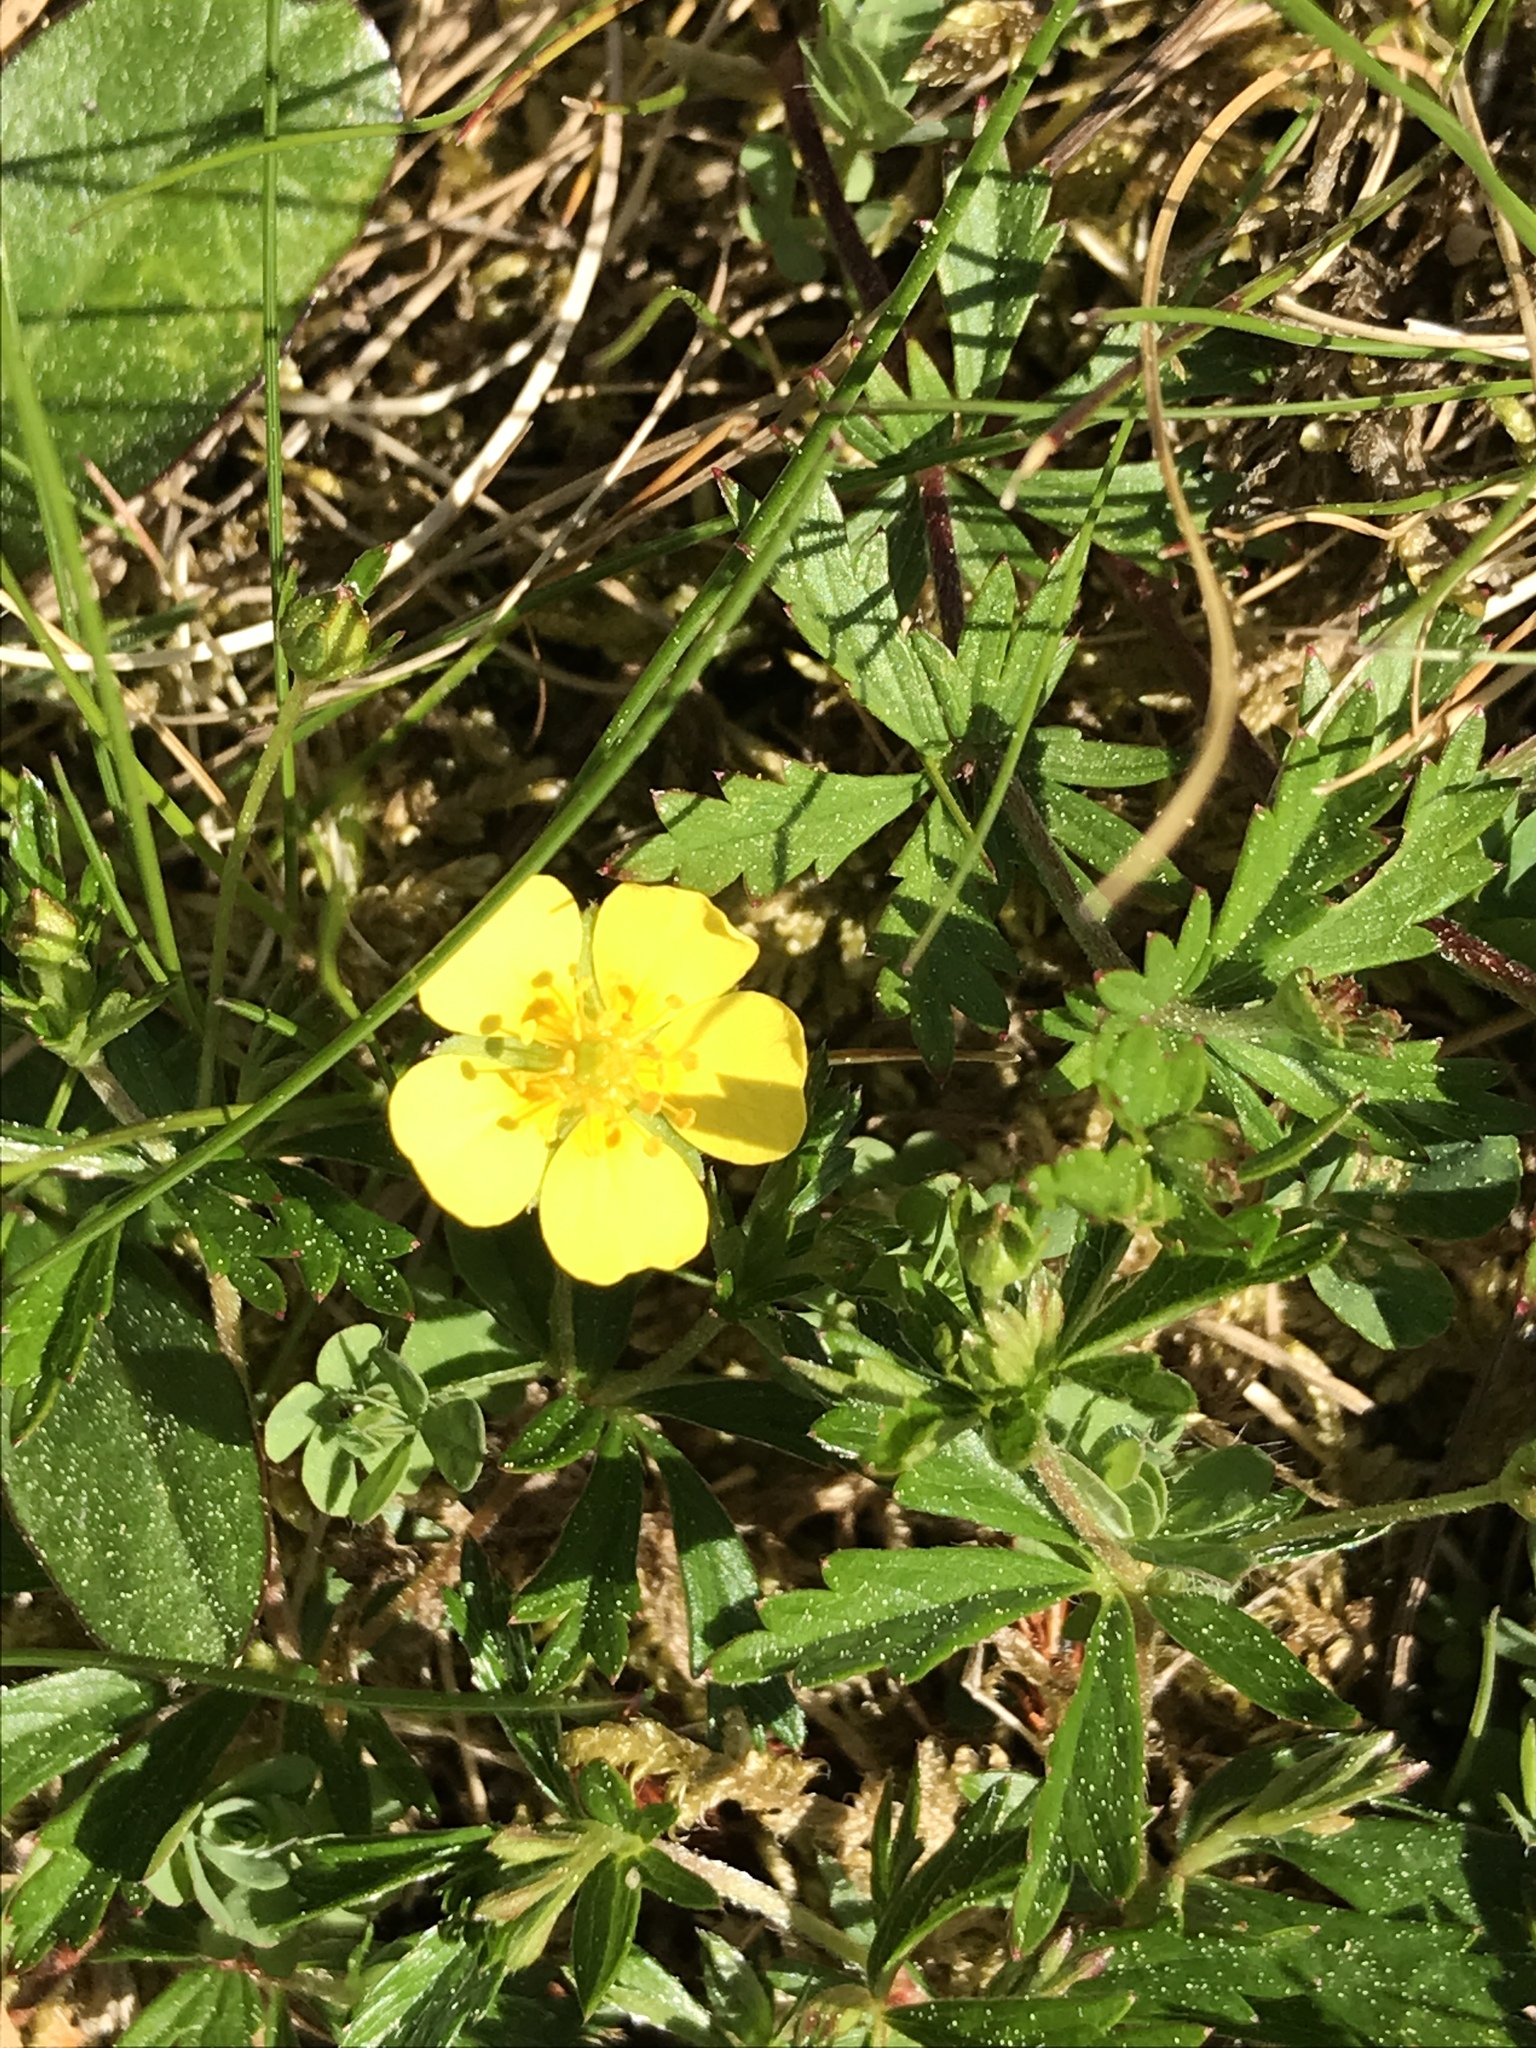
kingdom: Plantae
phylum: Tracheophyta
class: Magnoliopsida
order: Rosales
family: Rosaceae
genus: Potentilla
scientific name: Potentilla erecta
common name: Tormentil
